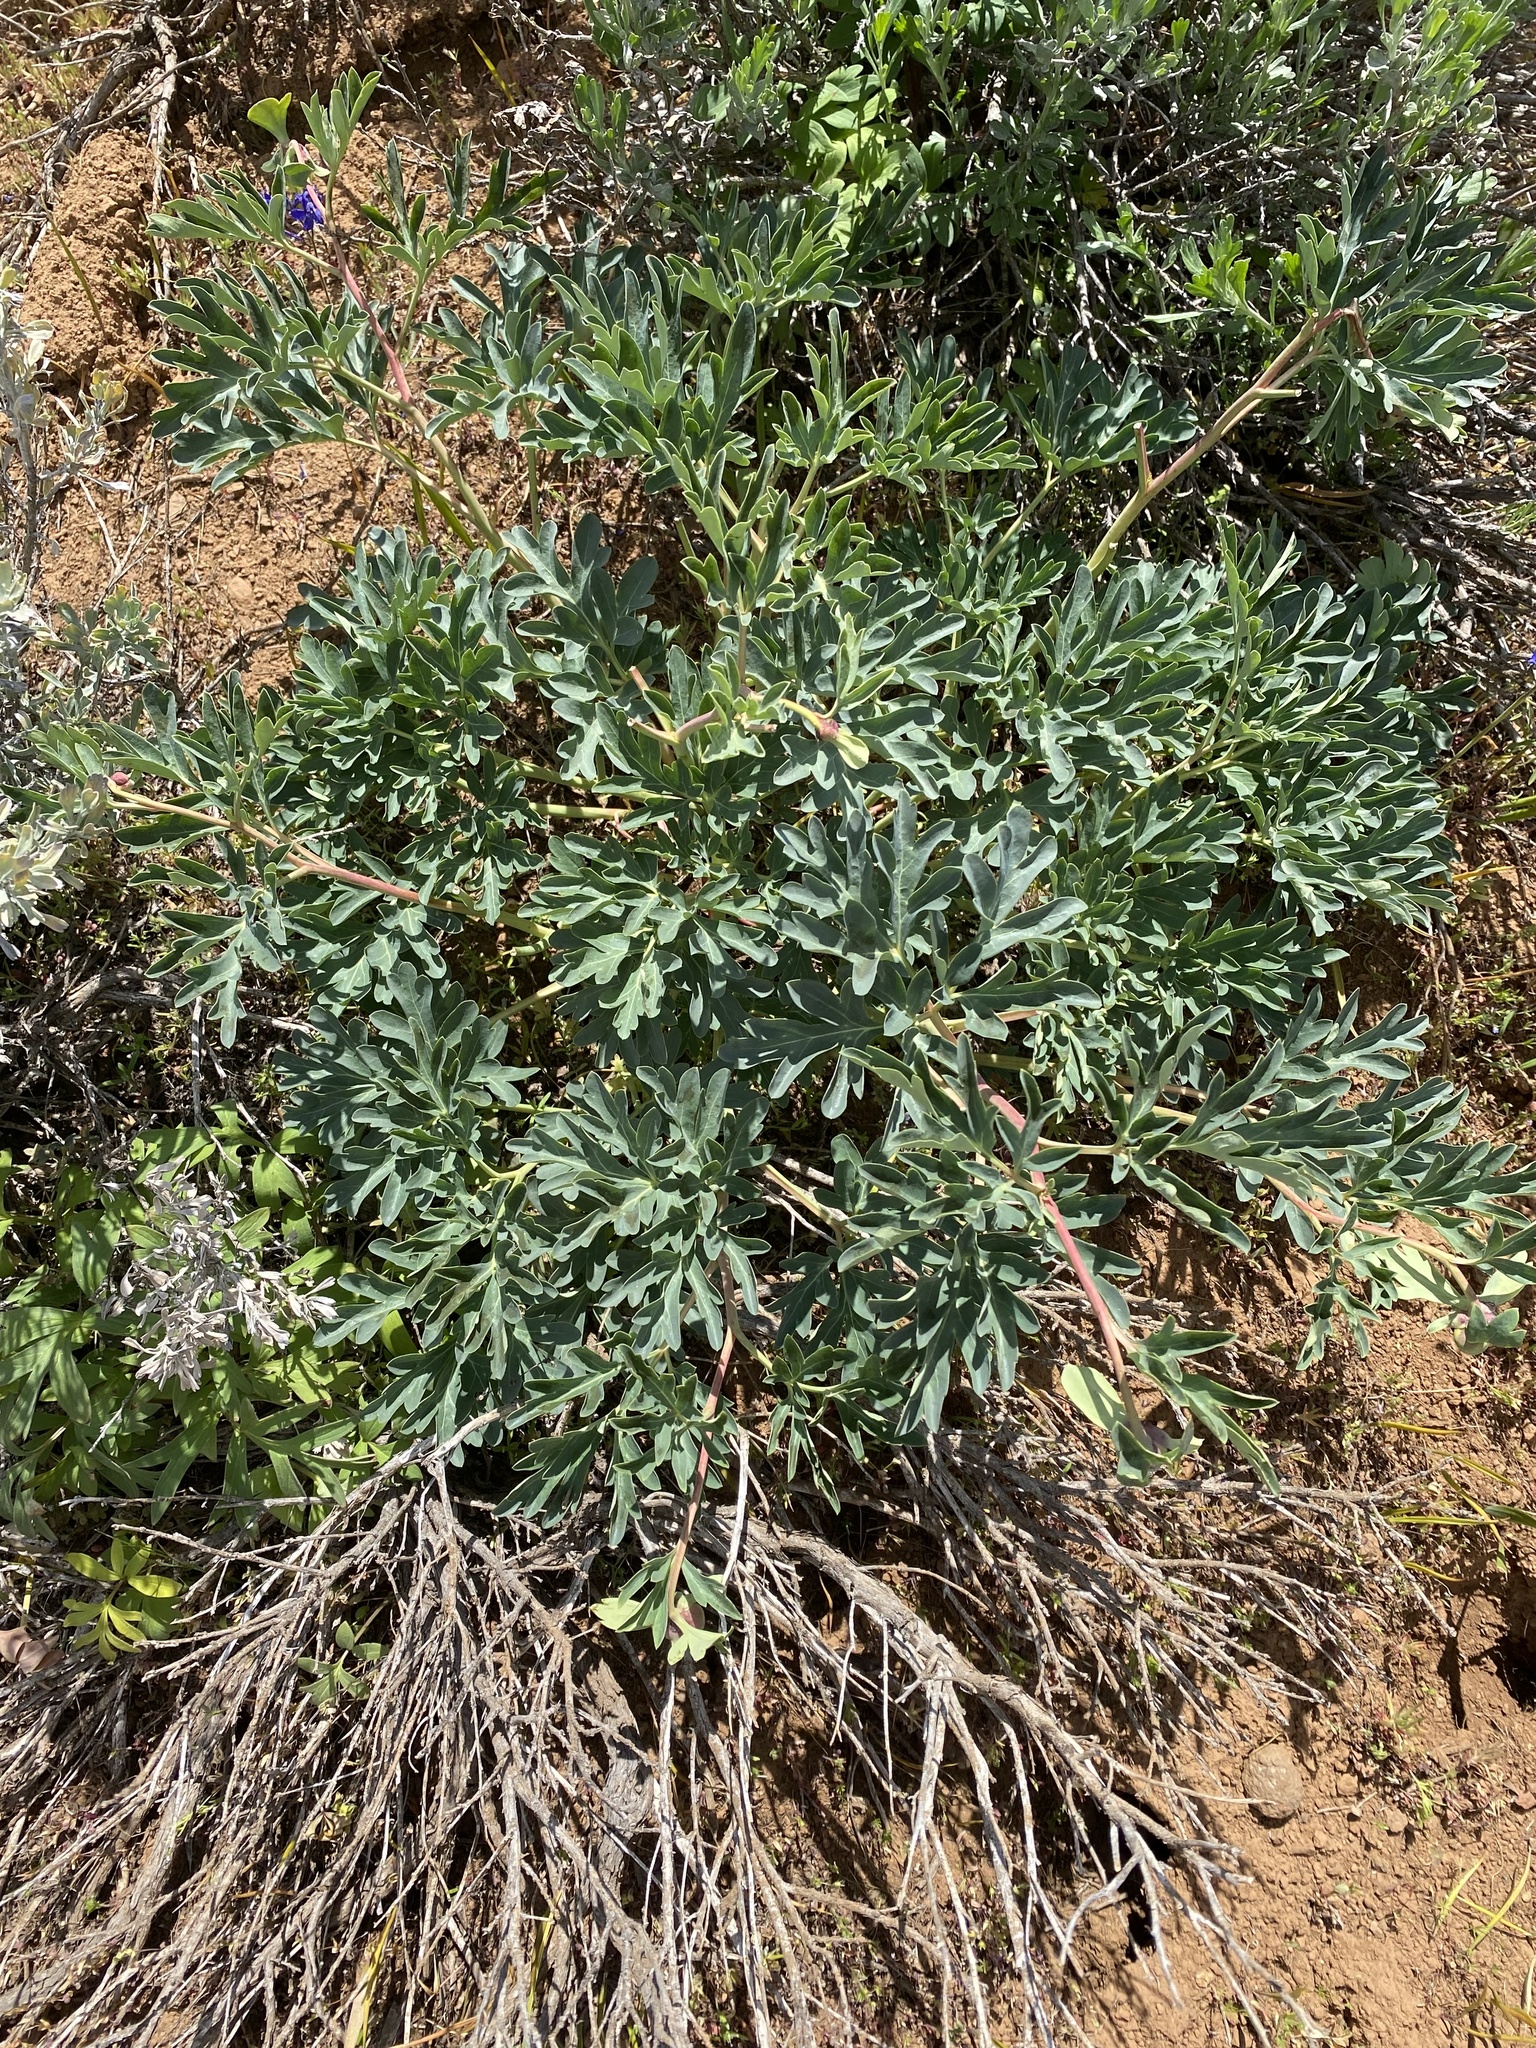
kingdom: Plantae
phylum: Tracheophyta
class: Magnoliopsida
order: Saxifragales
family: Paeoniaceae
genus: Paeonia
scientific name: Paeonia brownii
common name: Brown's peony
